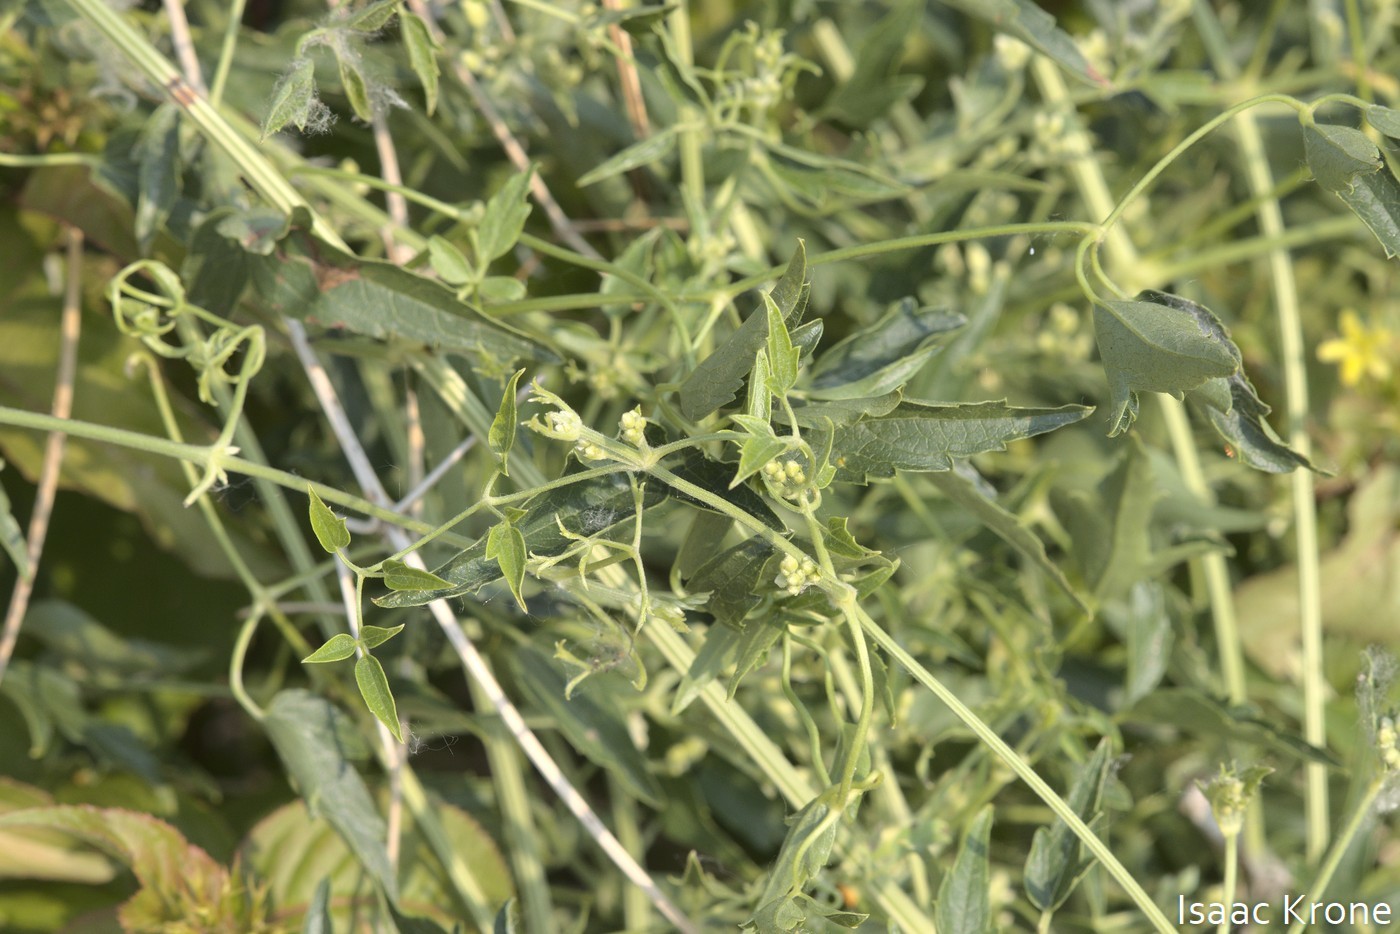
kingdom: Plantae
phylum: Tracheophyta
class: Magnoliopsida
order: Ranunculales
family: Ranunculaceae
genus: Clematis
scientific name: Clematis ligusticifolia
